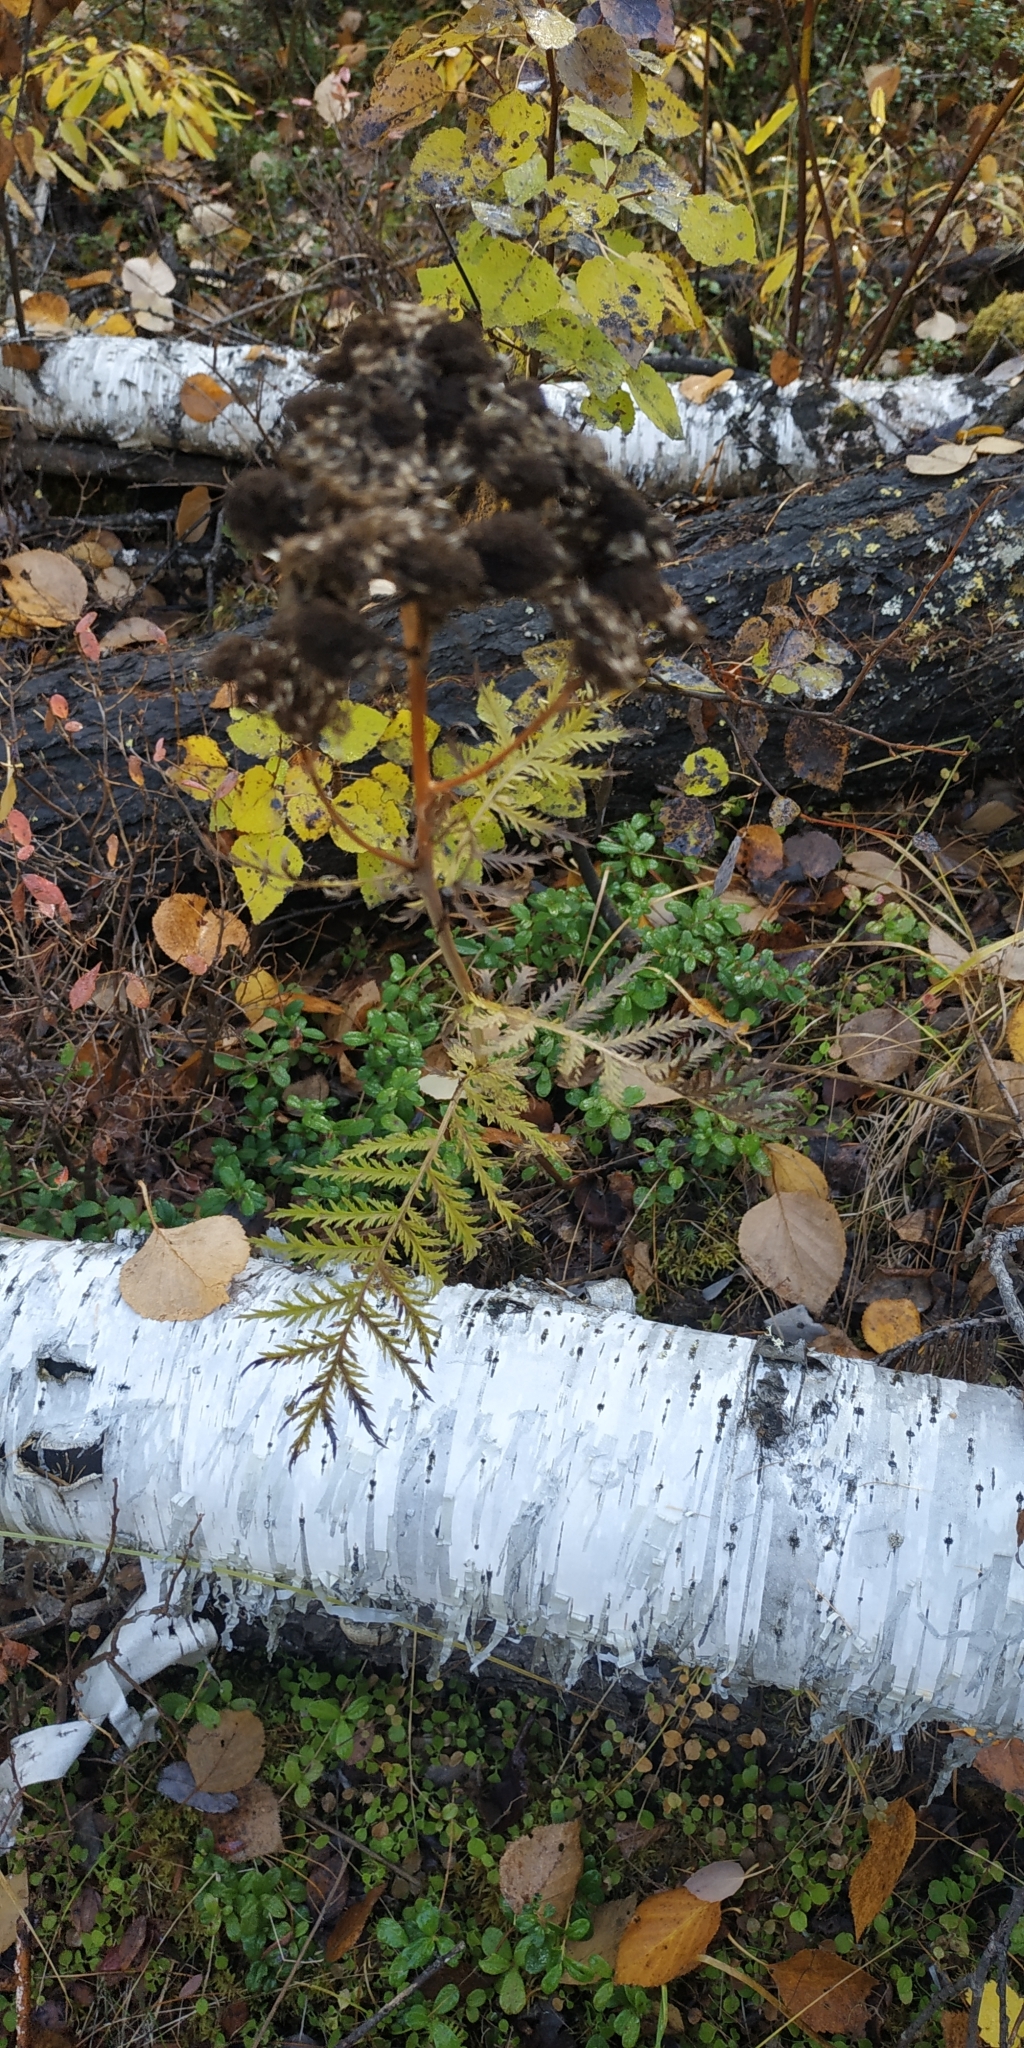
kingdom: Plantae
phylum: Tracheophyta
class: Magnoliopsida
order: Asterales
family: Asteraceae
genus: Tanacetum
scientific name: Tanacetum vulgare
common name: Common tansy
